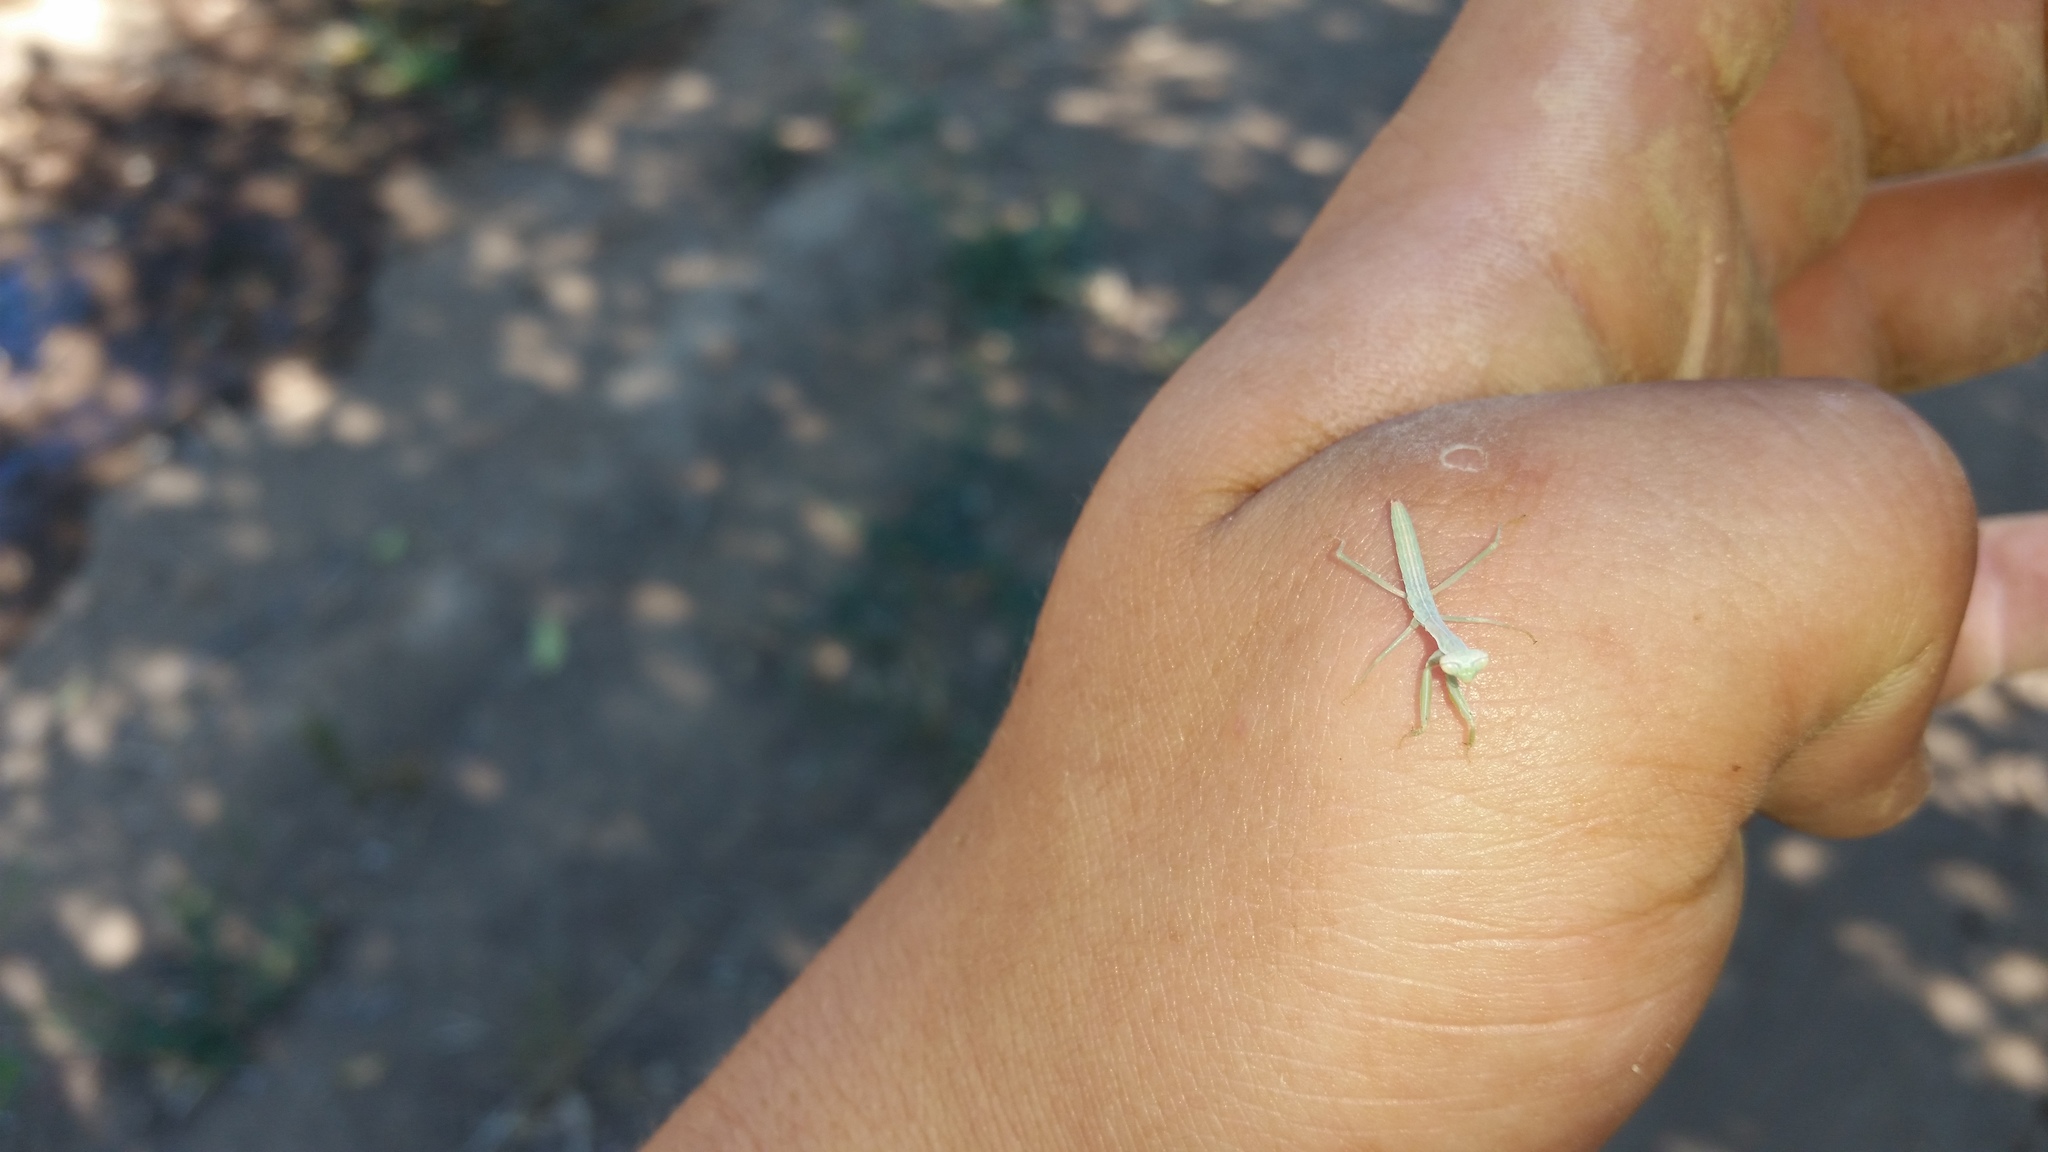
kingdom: Animalia
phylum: Arthropoda
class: Insecta
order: Mantodea
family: Mantidae
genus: Mantis
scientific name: Mantis religiosa
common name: Praying mantis
